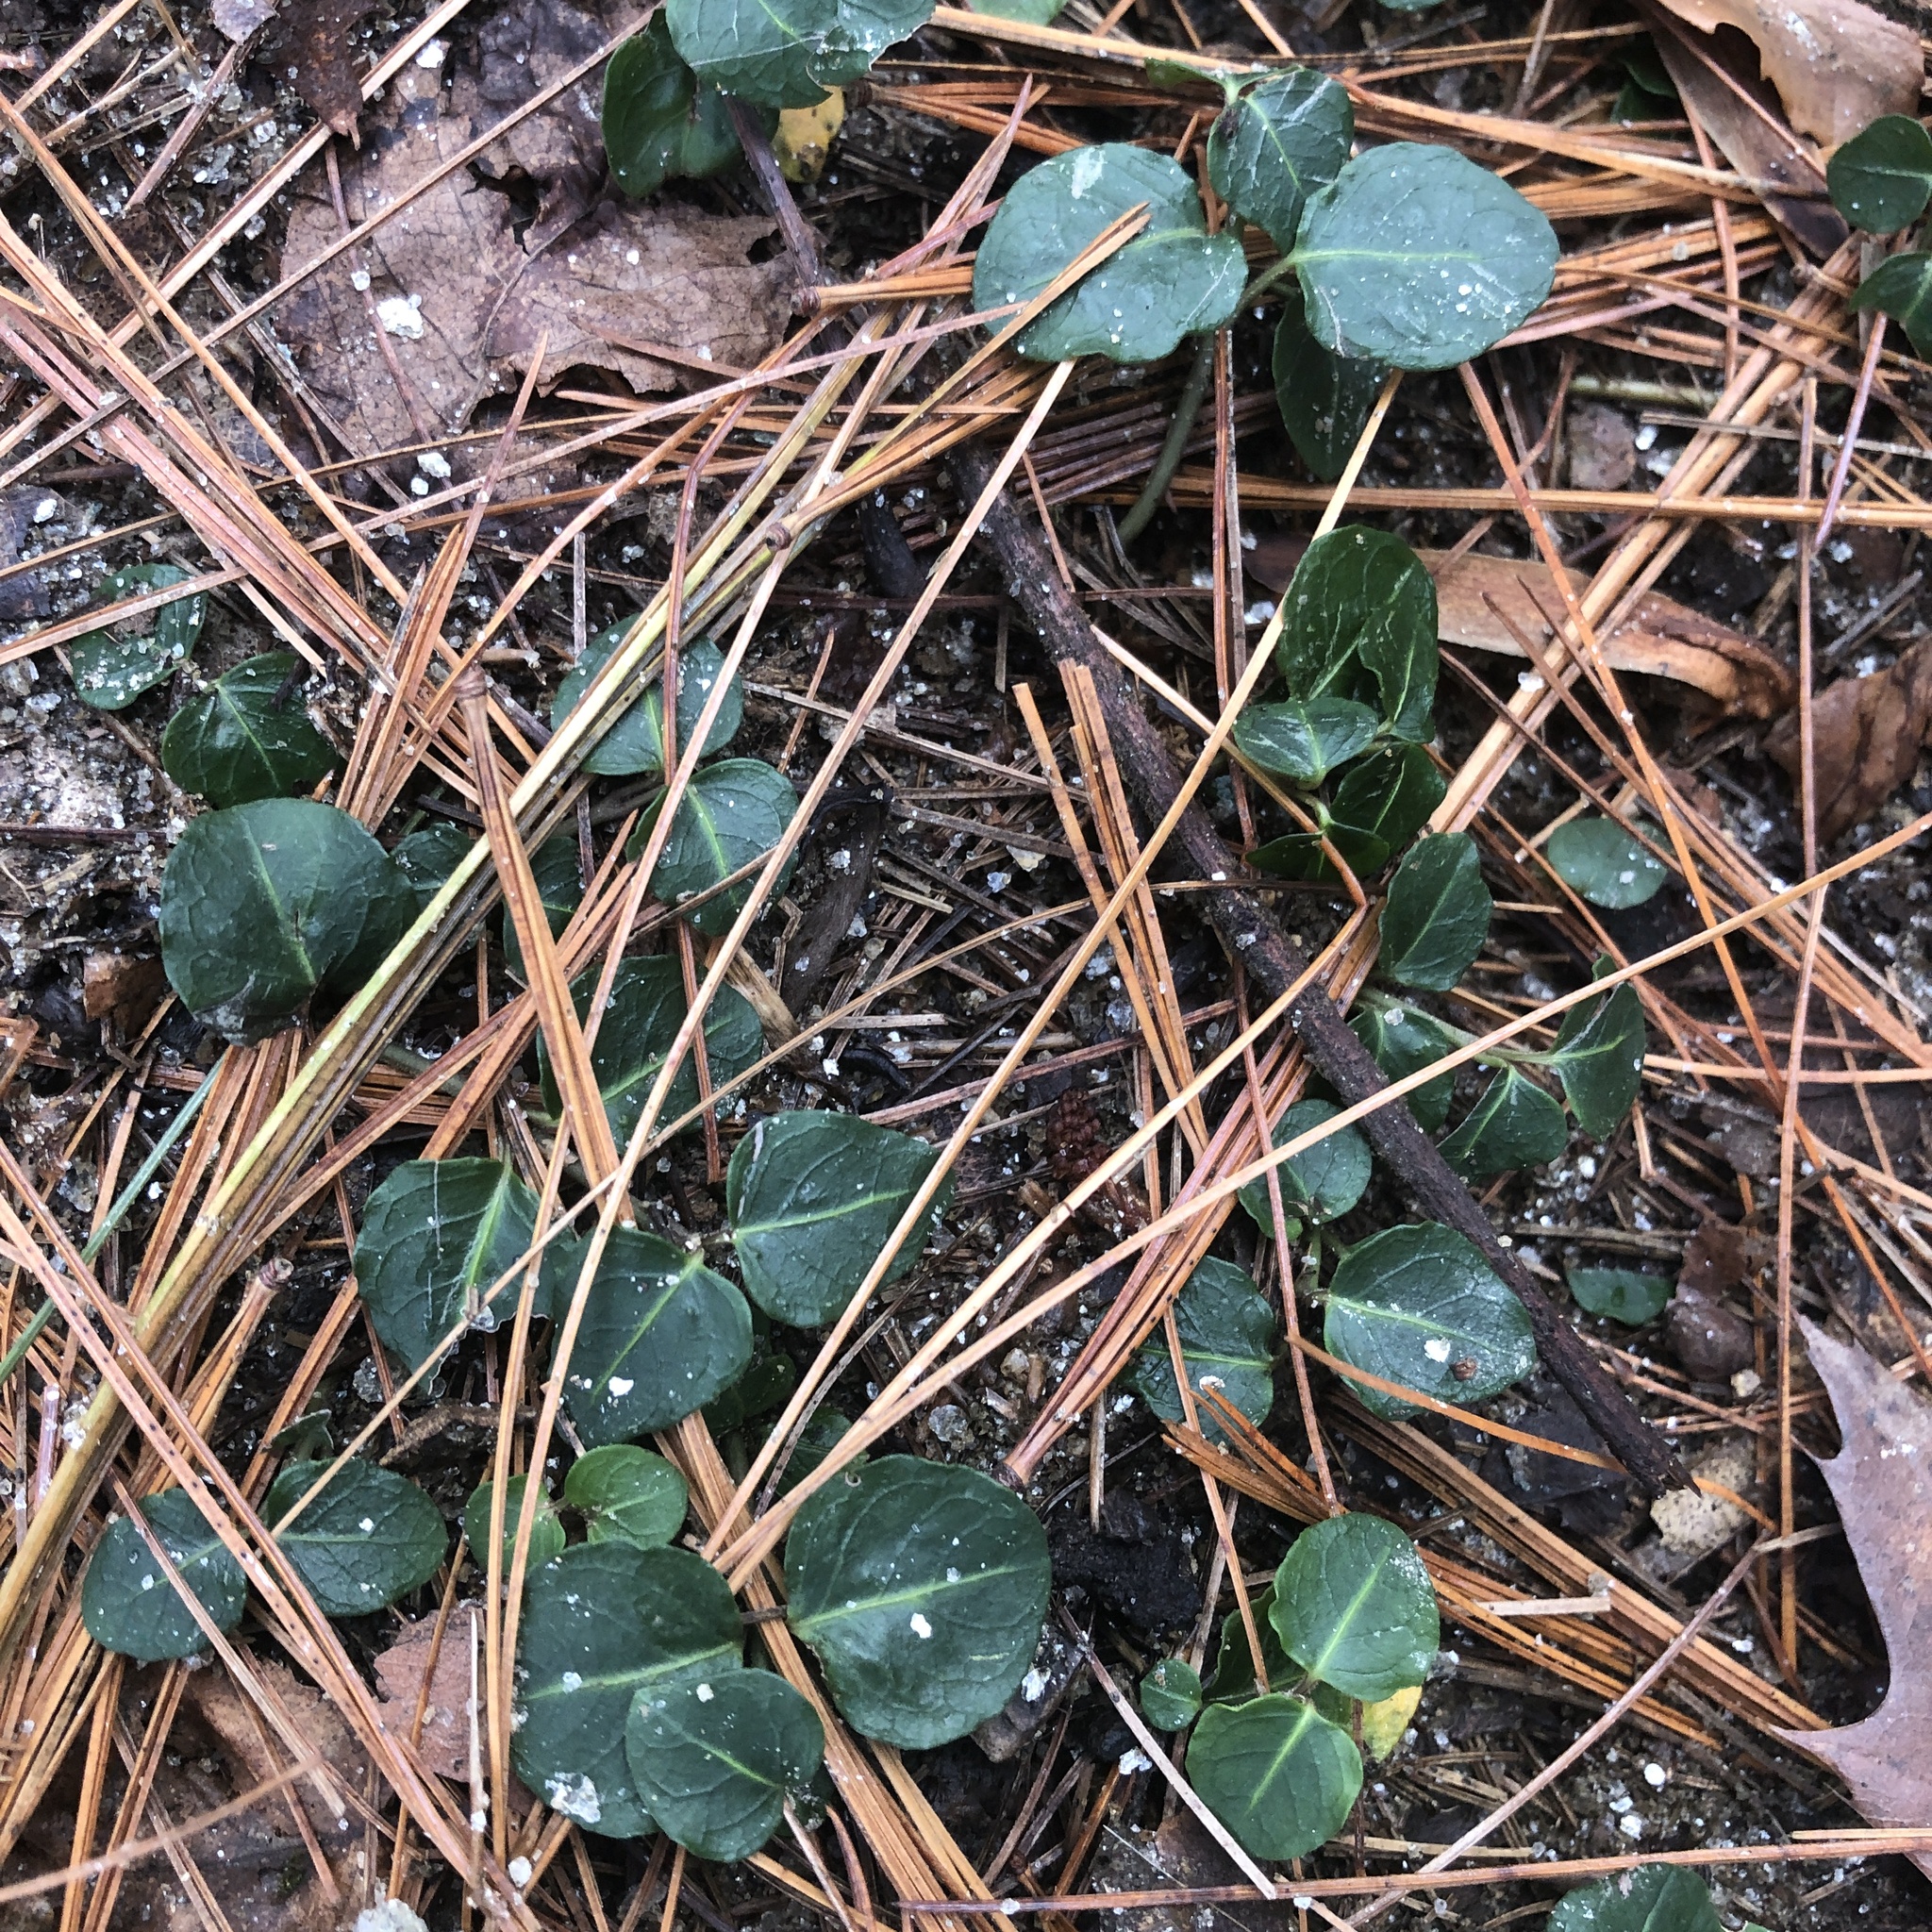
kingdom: Plantae
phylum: Tracheophyta
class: Magnoliopsida
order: Gentianales
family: Rubiaceae
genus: Mitchella
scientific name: Mitchella repens
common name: Partridge-berry
